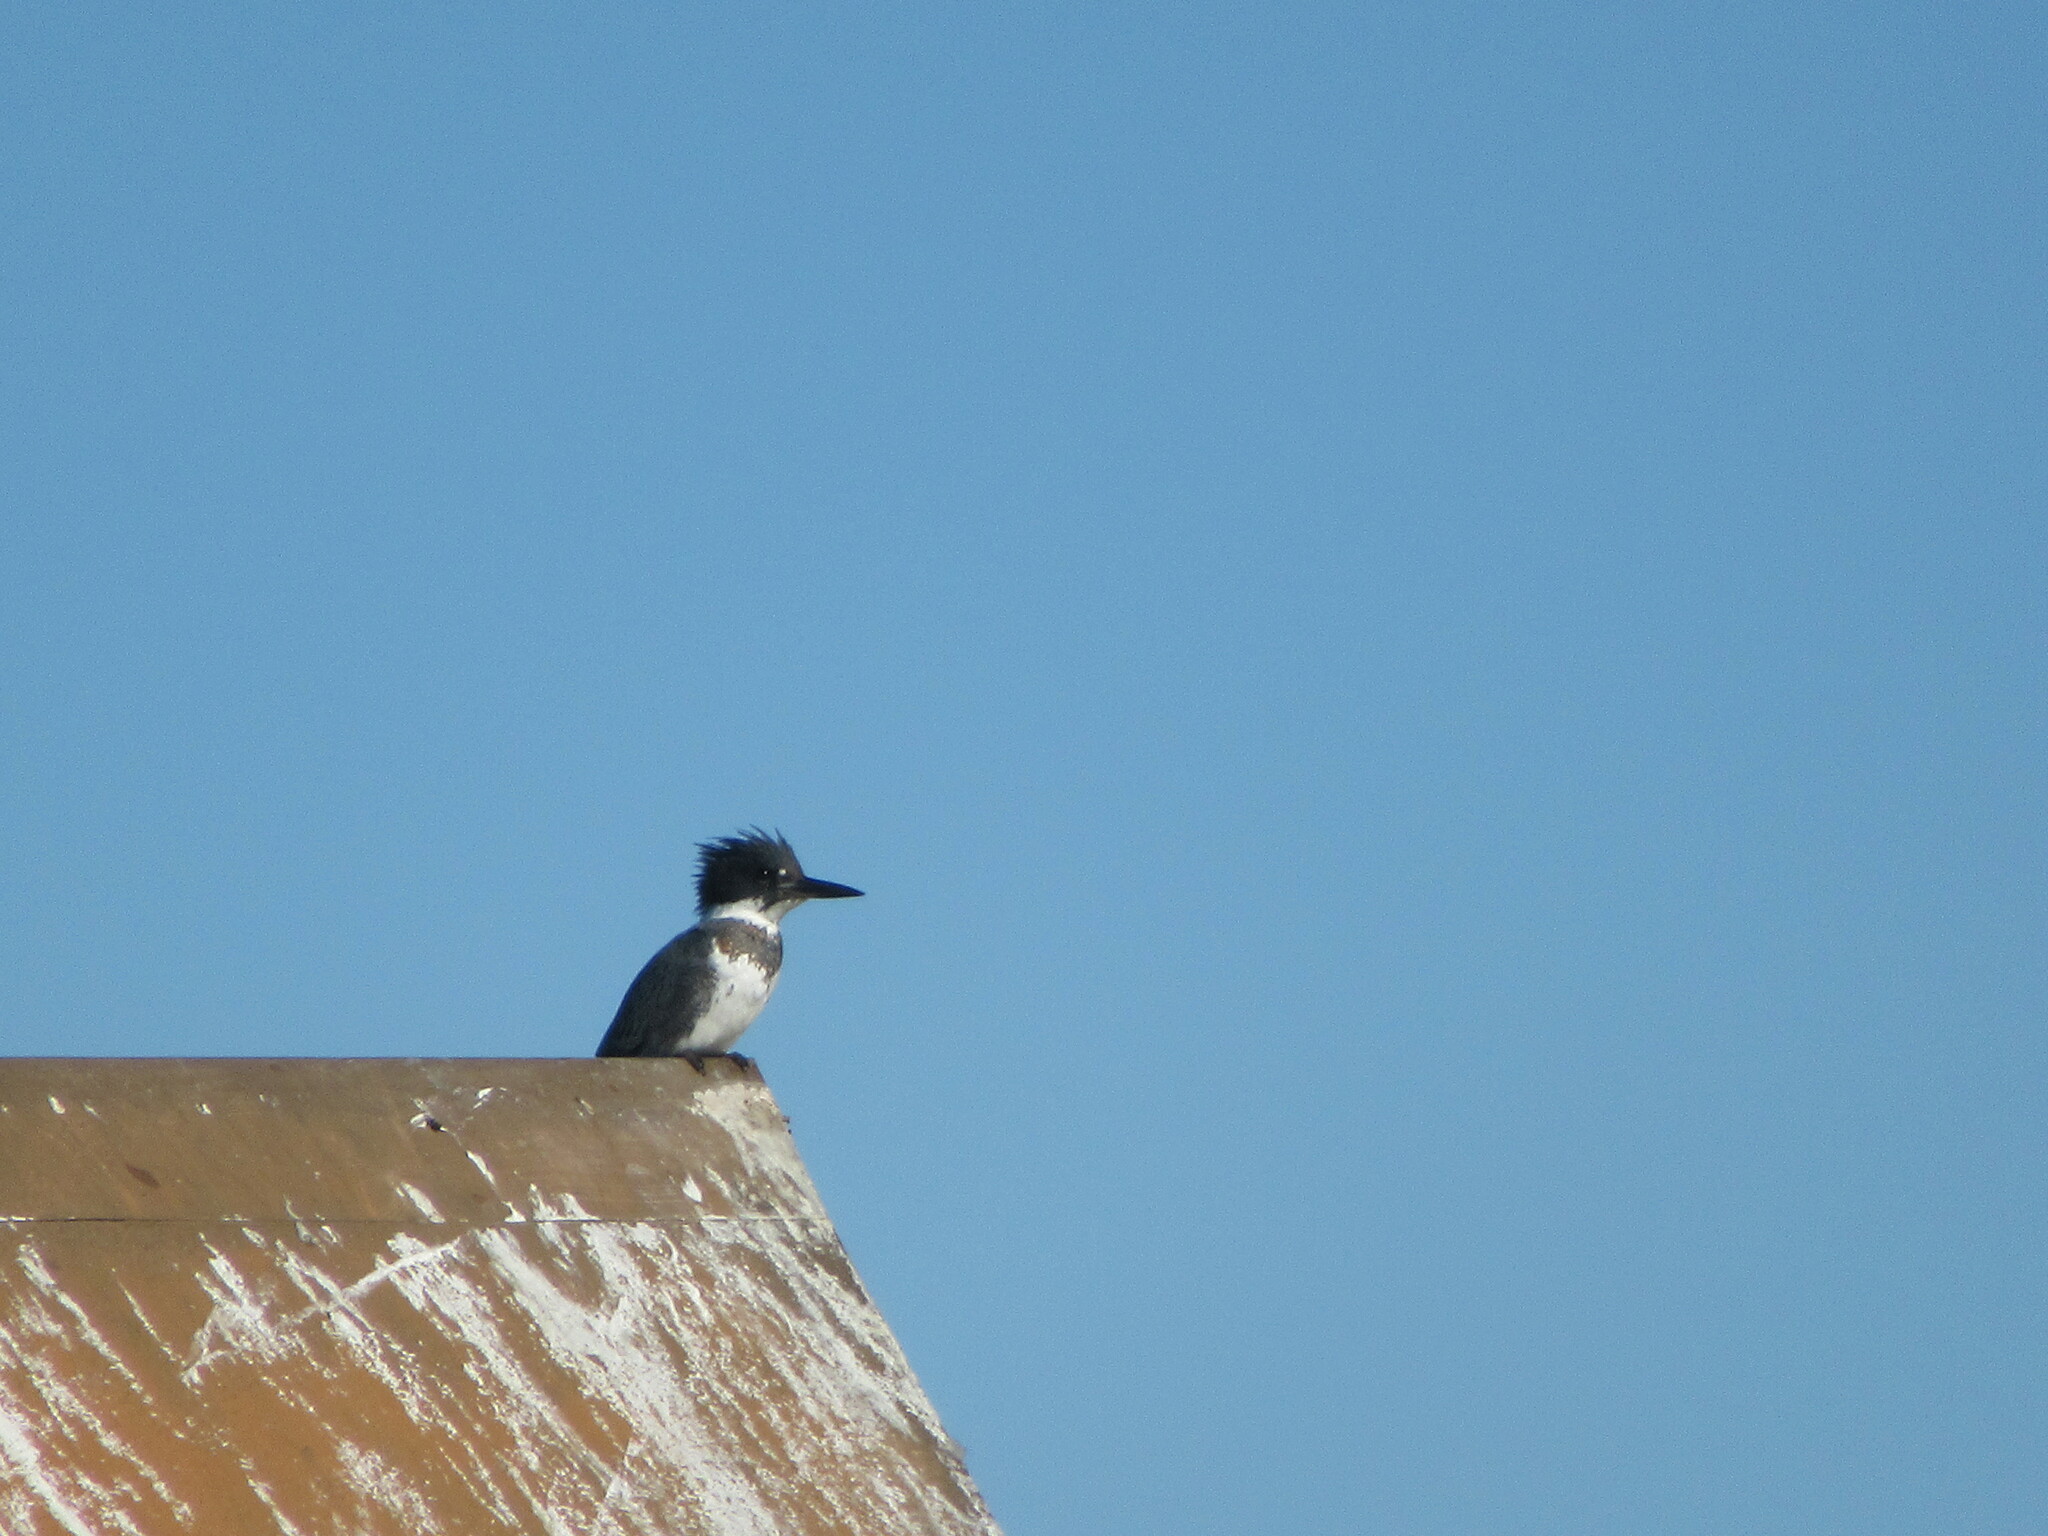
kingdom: Animalia
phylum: Chordata
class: Aves
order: Coraciiformes
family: Alcedinidae
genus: Megaceryle
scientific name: Megaceryle alcyon
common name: Belted kingfisher
